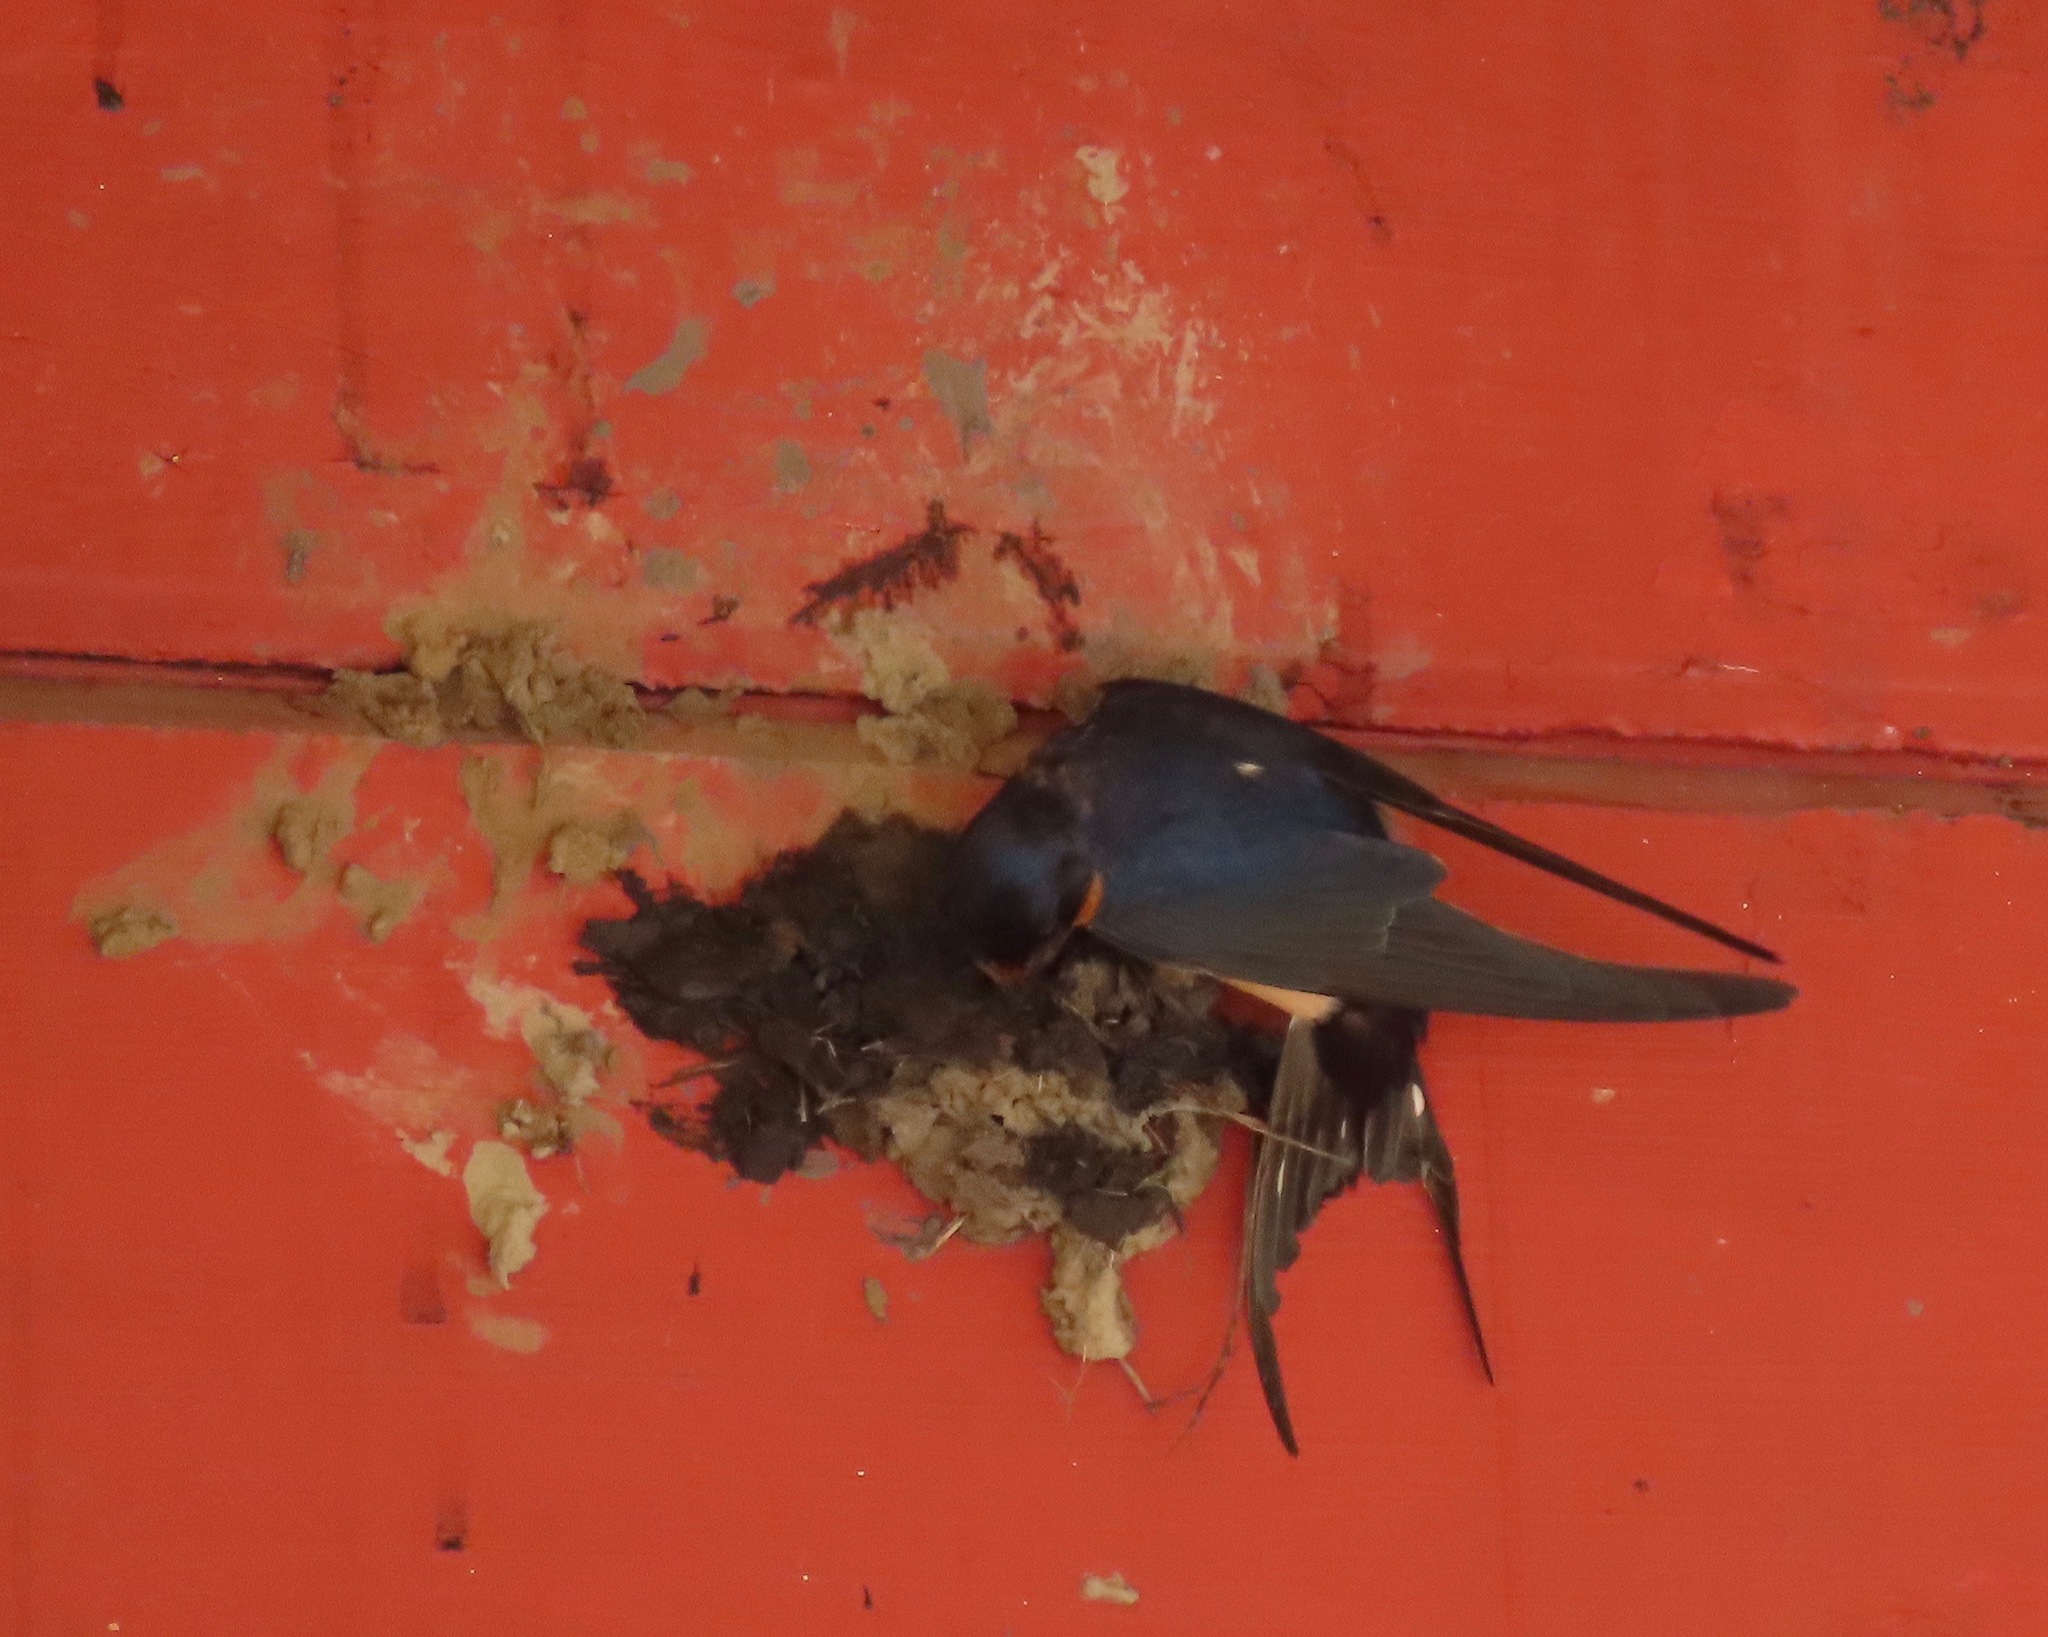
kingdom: Animalia
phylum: Chordata
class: Aves
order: Passeriformes
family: Hirundinidae
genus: Hirundo
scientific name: Hirundo rustica
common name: Barn swallow
